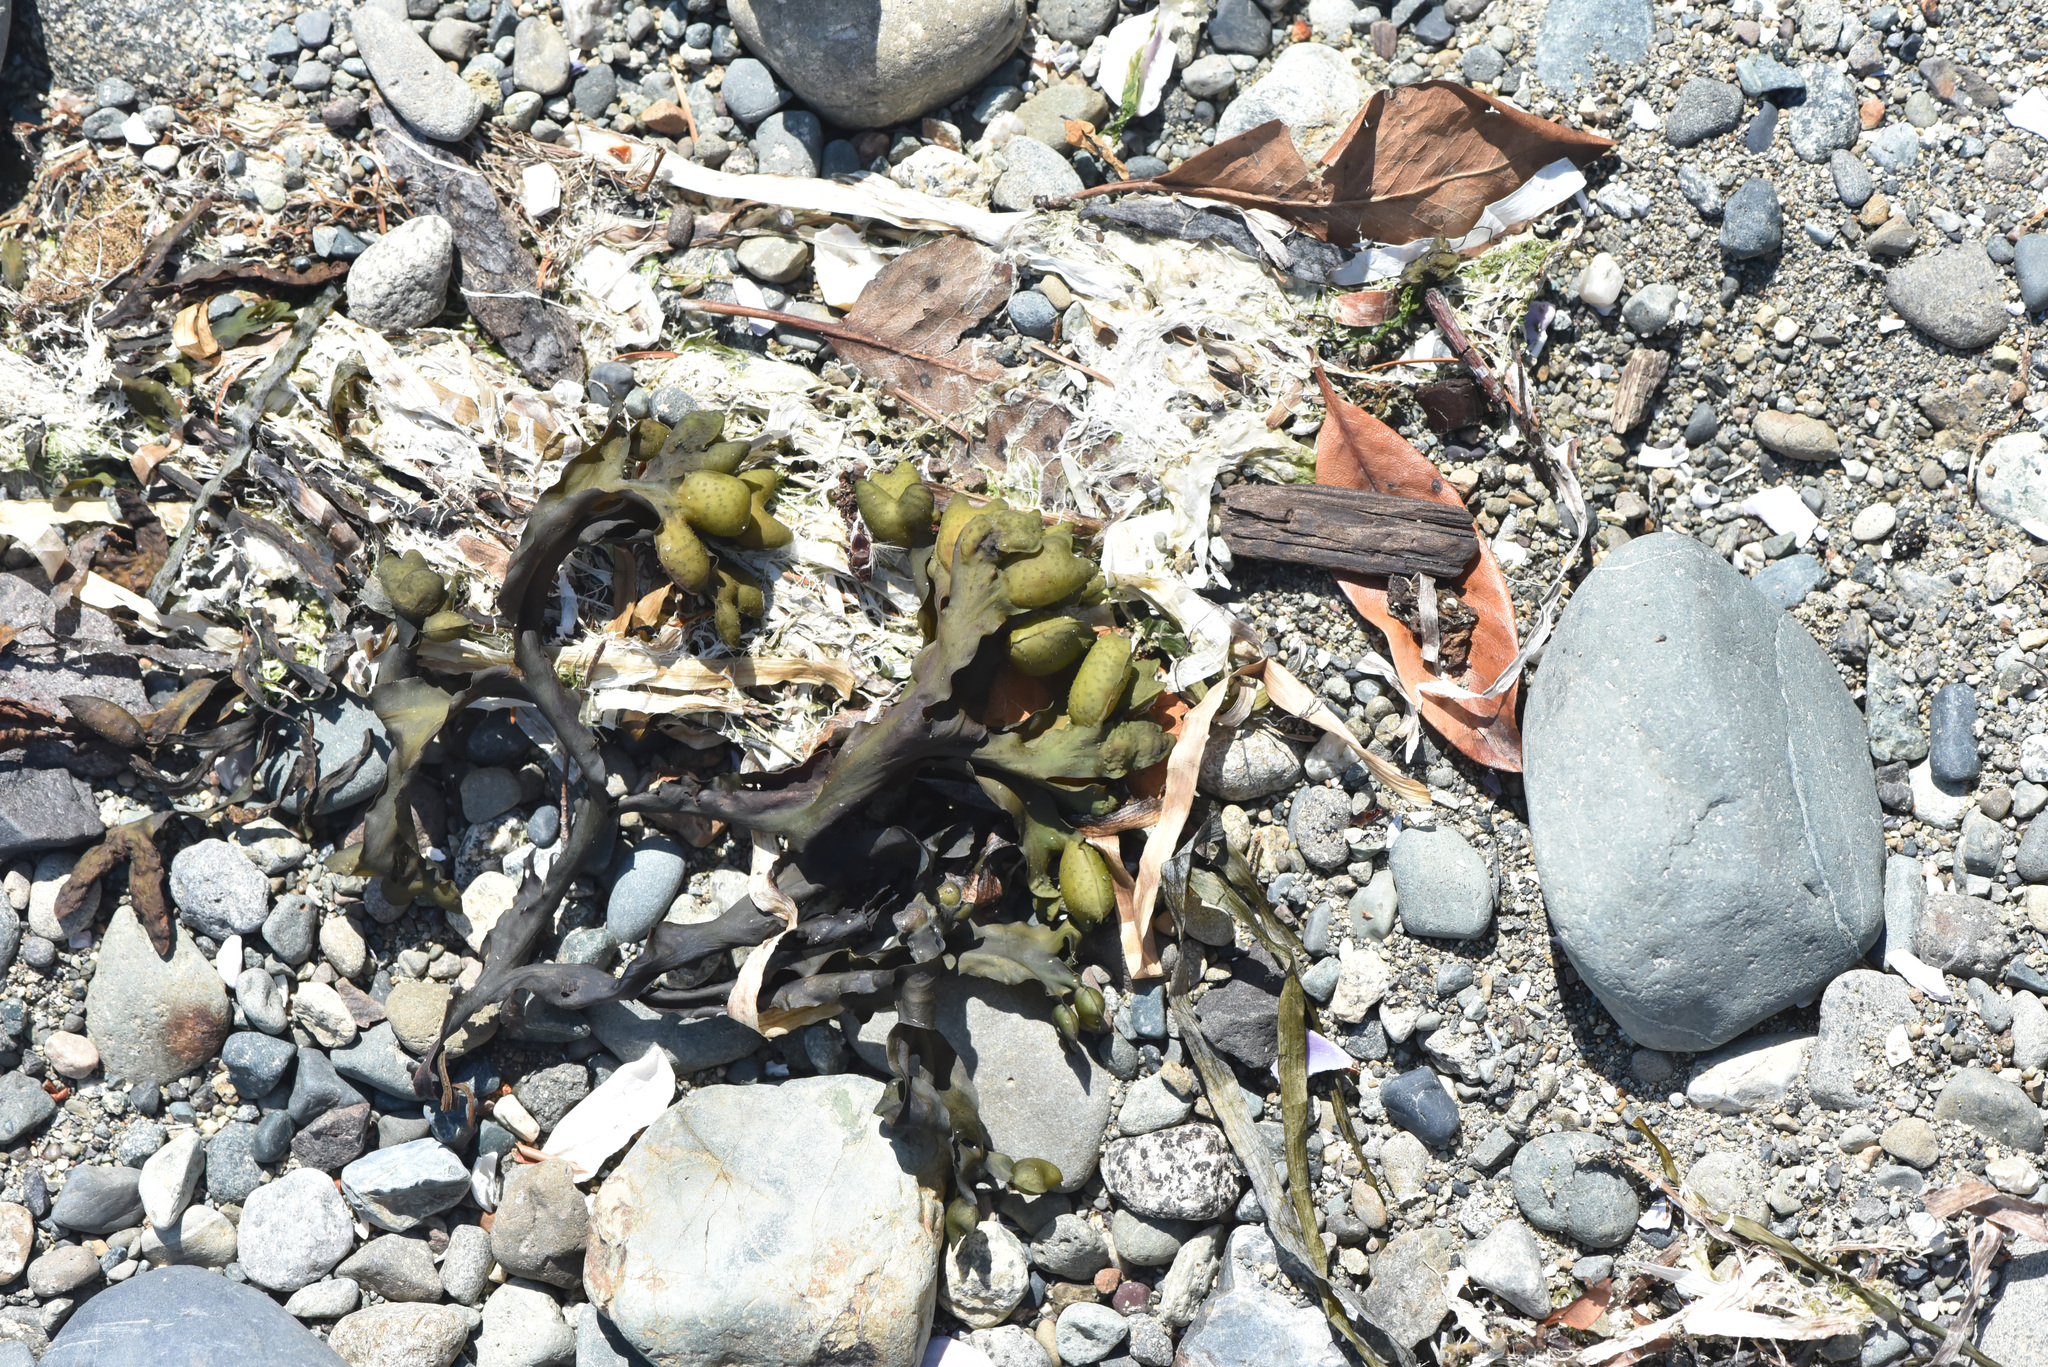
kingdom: Chromista
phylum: Ochrophyta
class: Phaeophyceae
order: Fucales
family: Fucaceae
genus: Fucus
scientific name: Fucus distichus
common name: Rockweed
